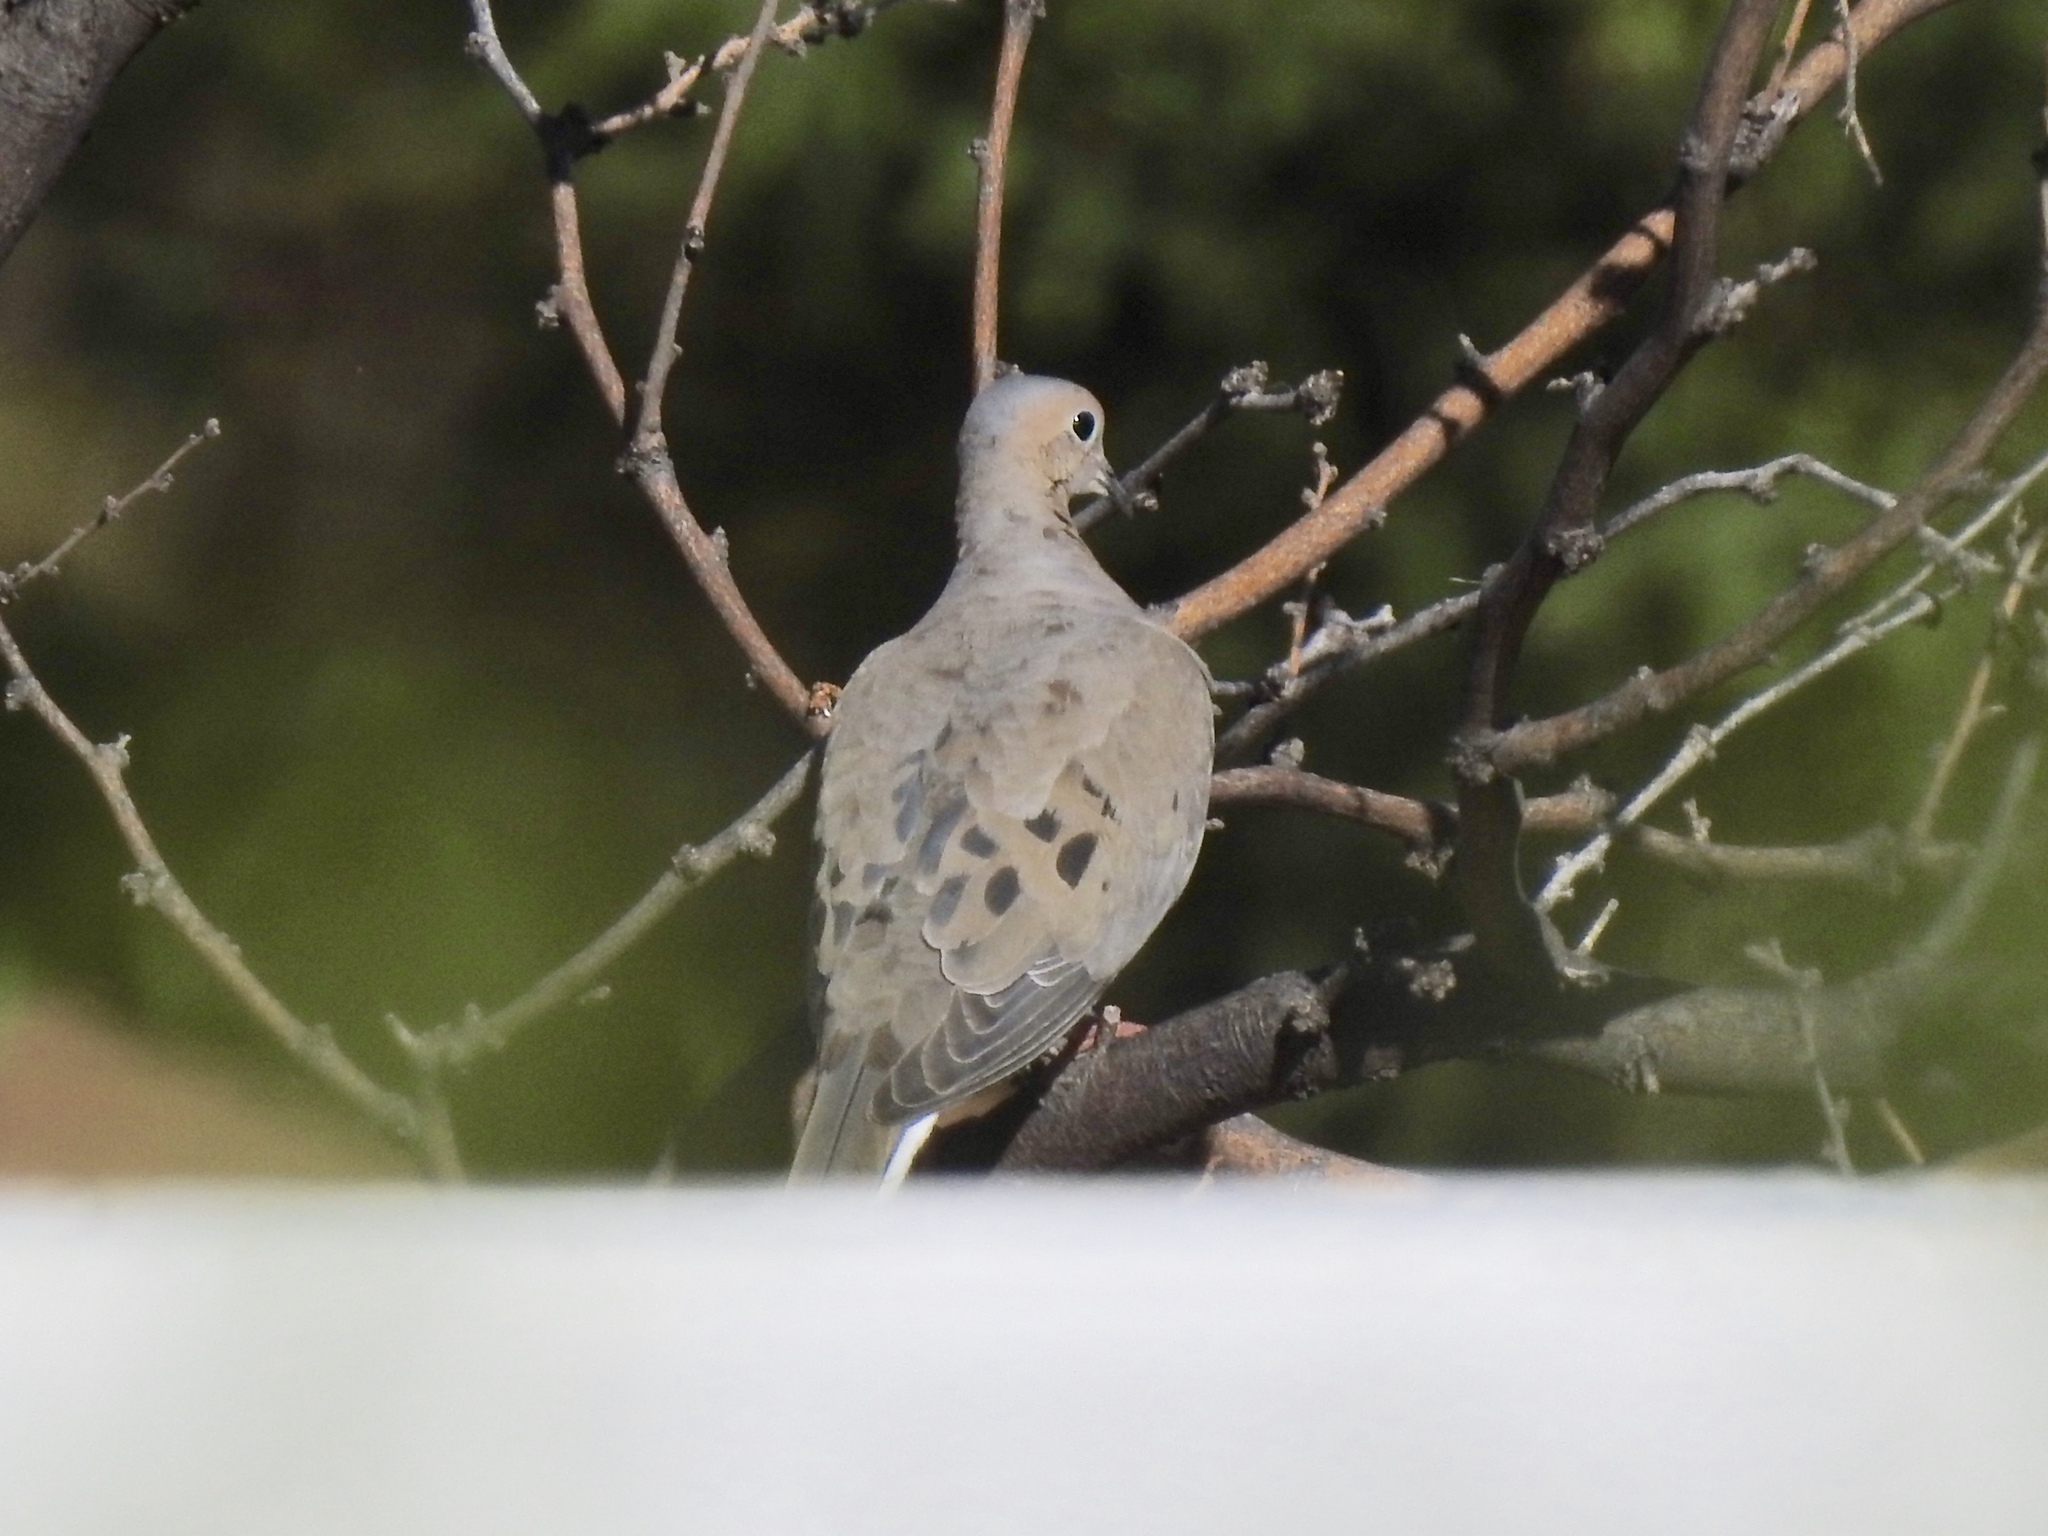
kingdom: Animalia
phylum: Chordata
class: Aves
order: Columbiformes
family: Columbidae
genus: Zenaida
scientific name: Zenaida macroura
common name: Mourning dove
